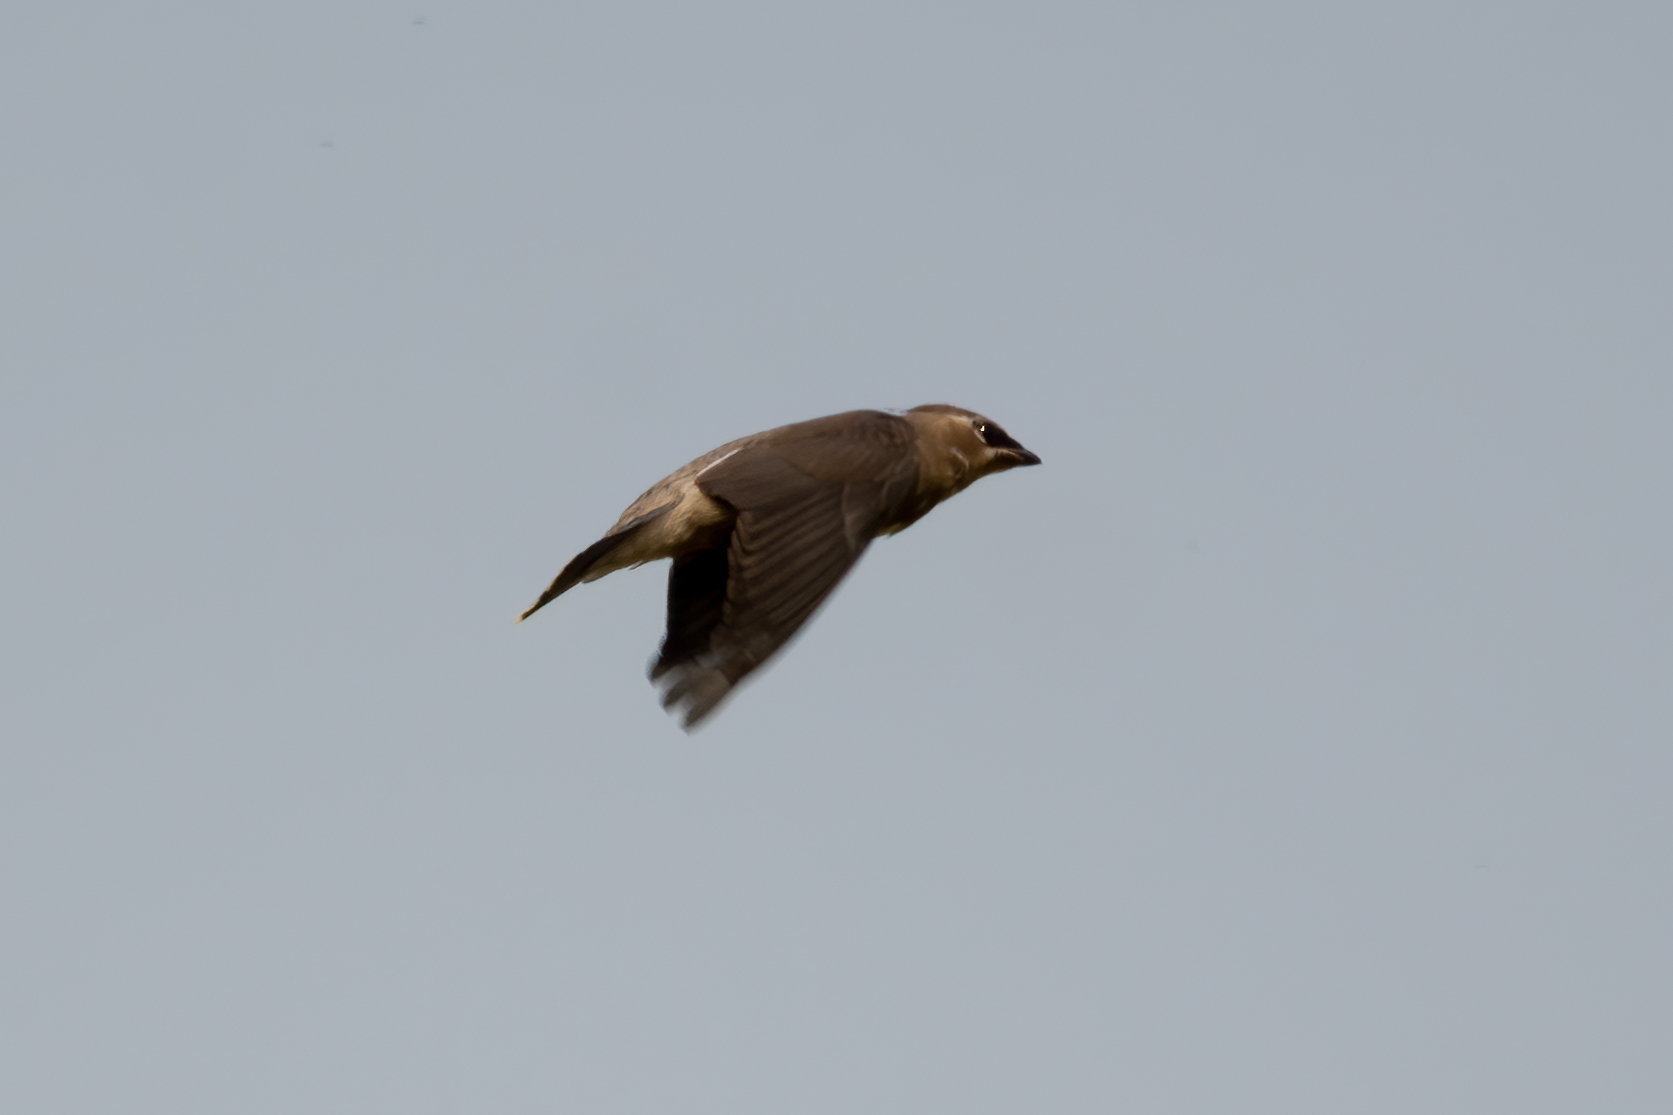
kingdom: Animalia
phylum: Chordata
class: Aves
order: Passeriformes
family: Bombycillidae
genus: Bombycilla
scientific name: Bombycilla cedrorum
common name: Cedar waxwing
